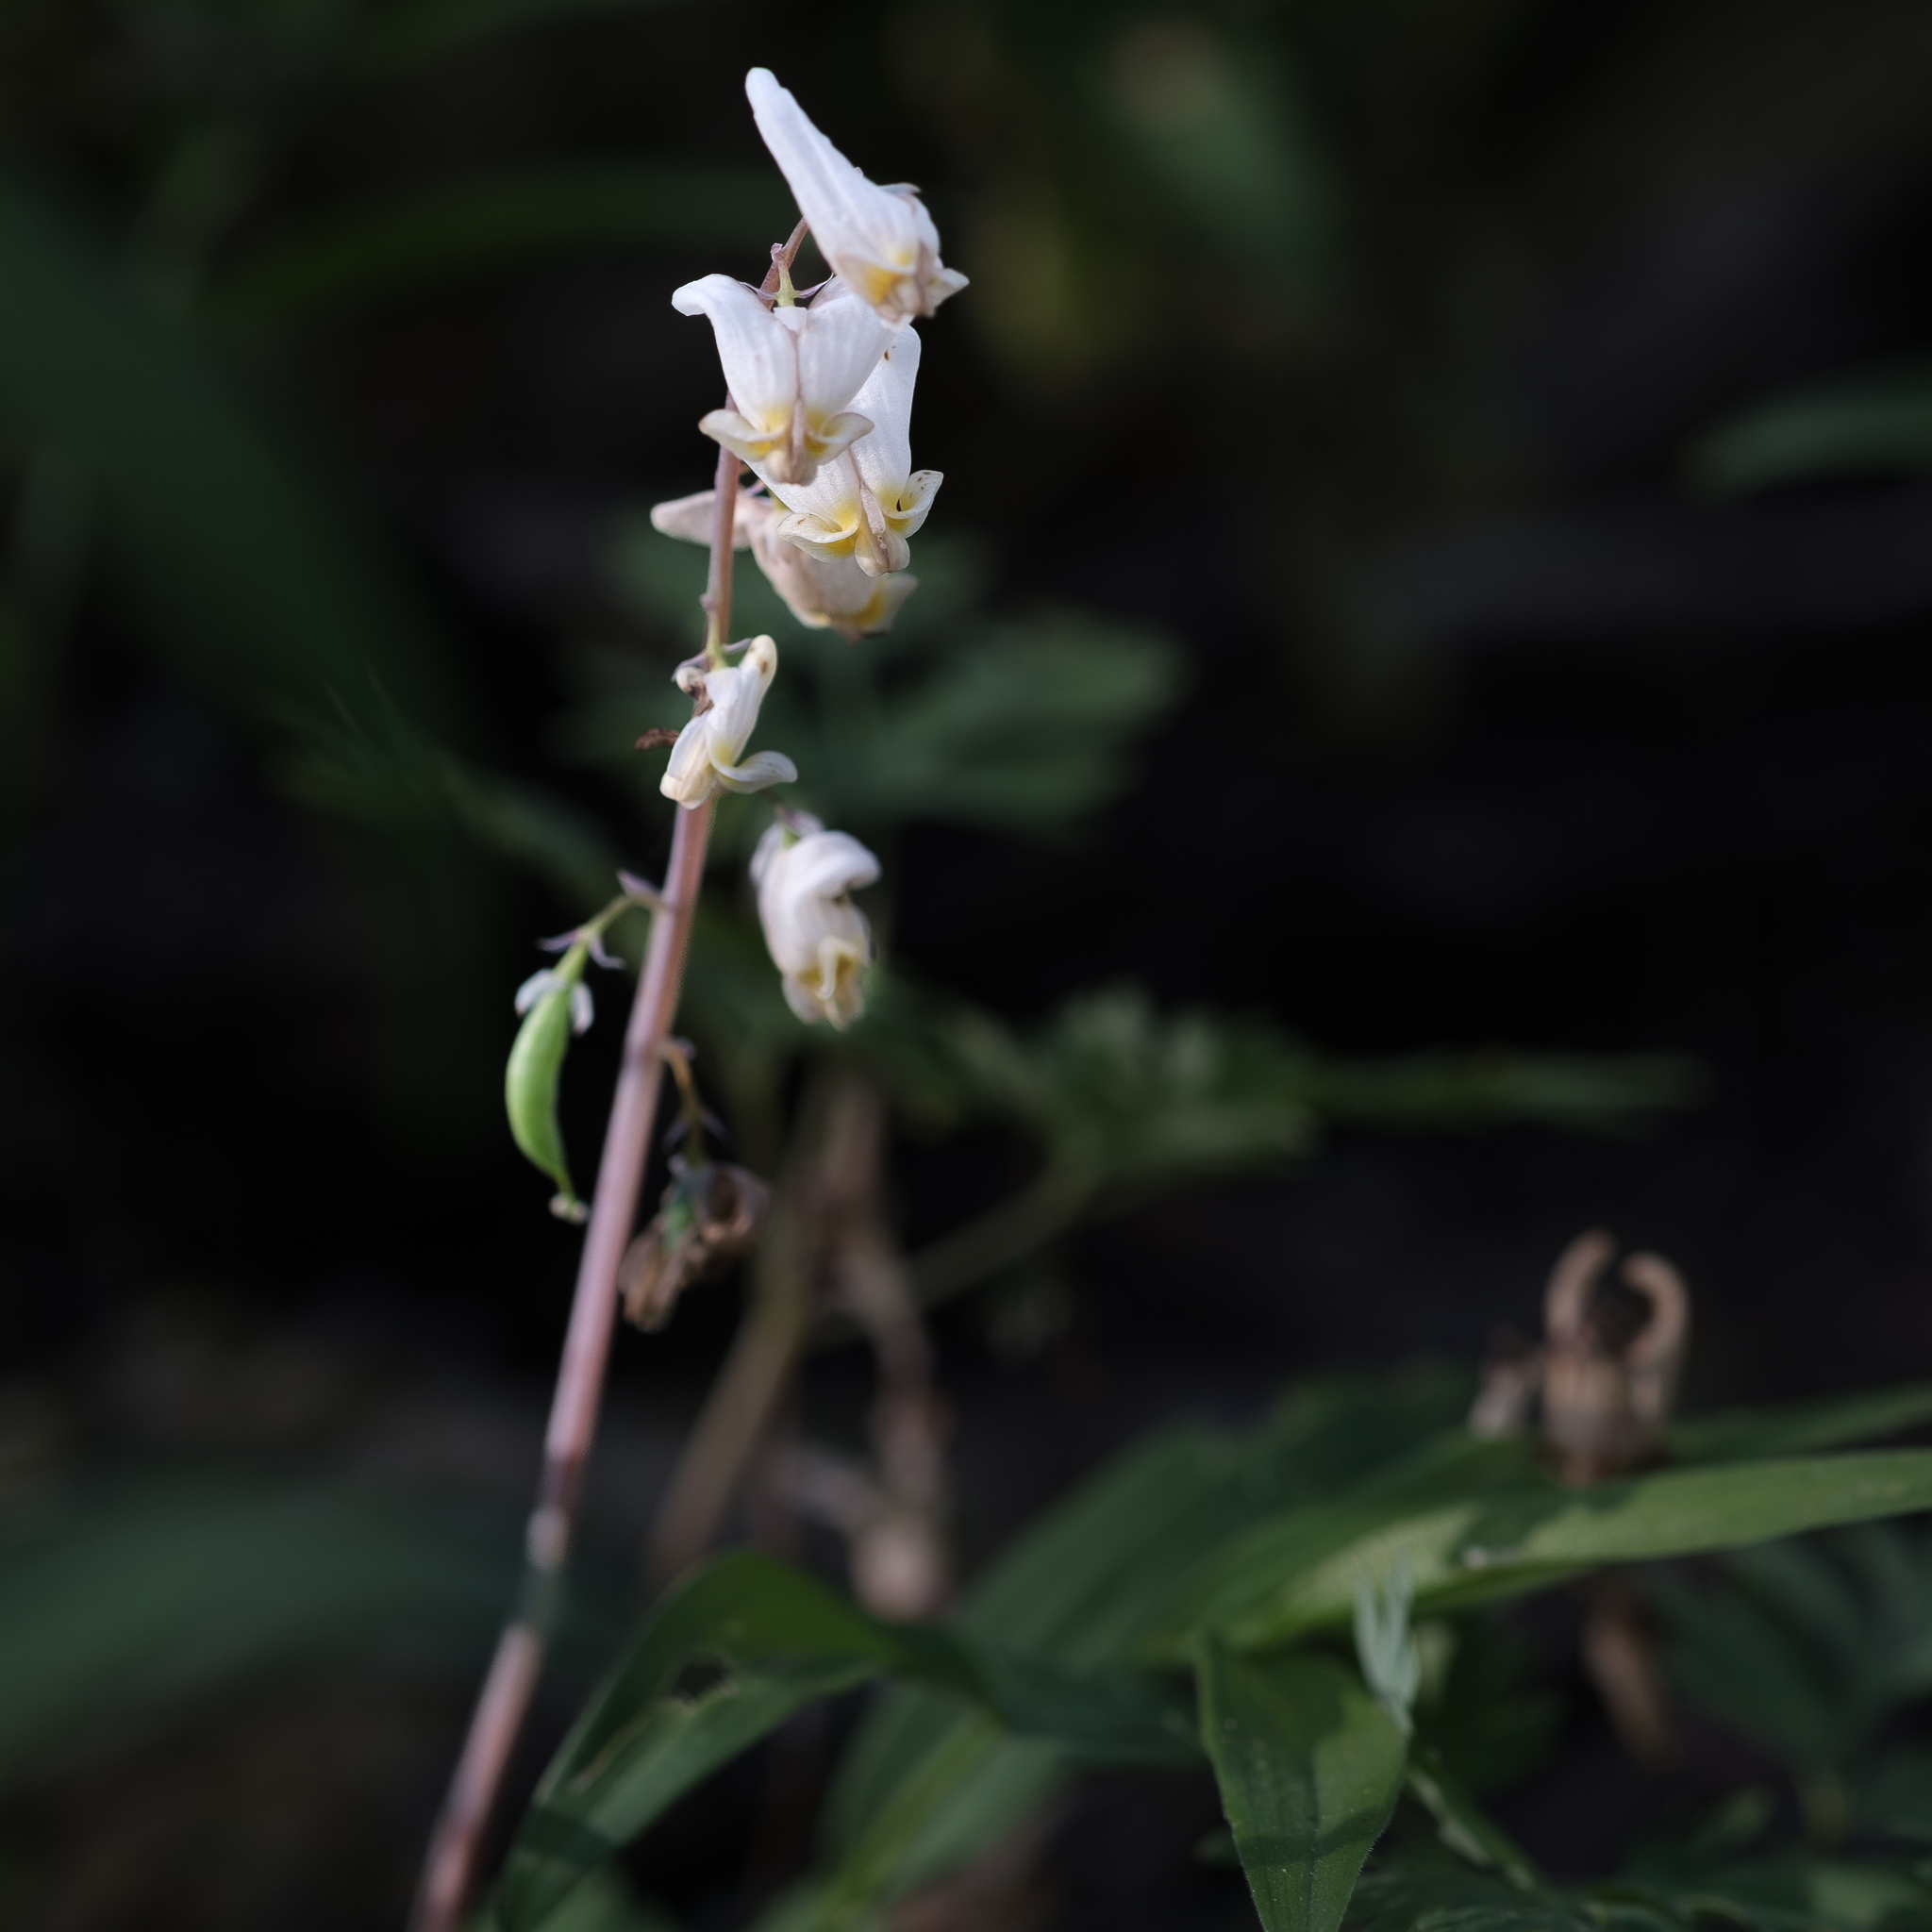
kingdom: Plantae
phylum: Tracheophyta
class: Magnoliopsida
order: Ranunculales
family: Papaveraceae
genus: Dicentra
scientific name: Dicentra cucullaria
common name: Dutchman's breeches
